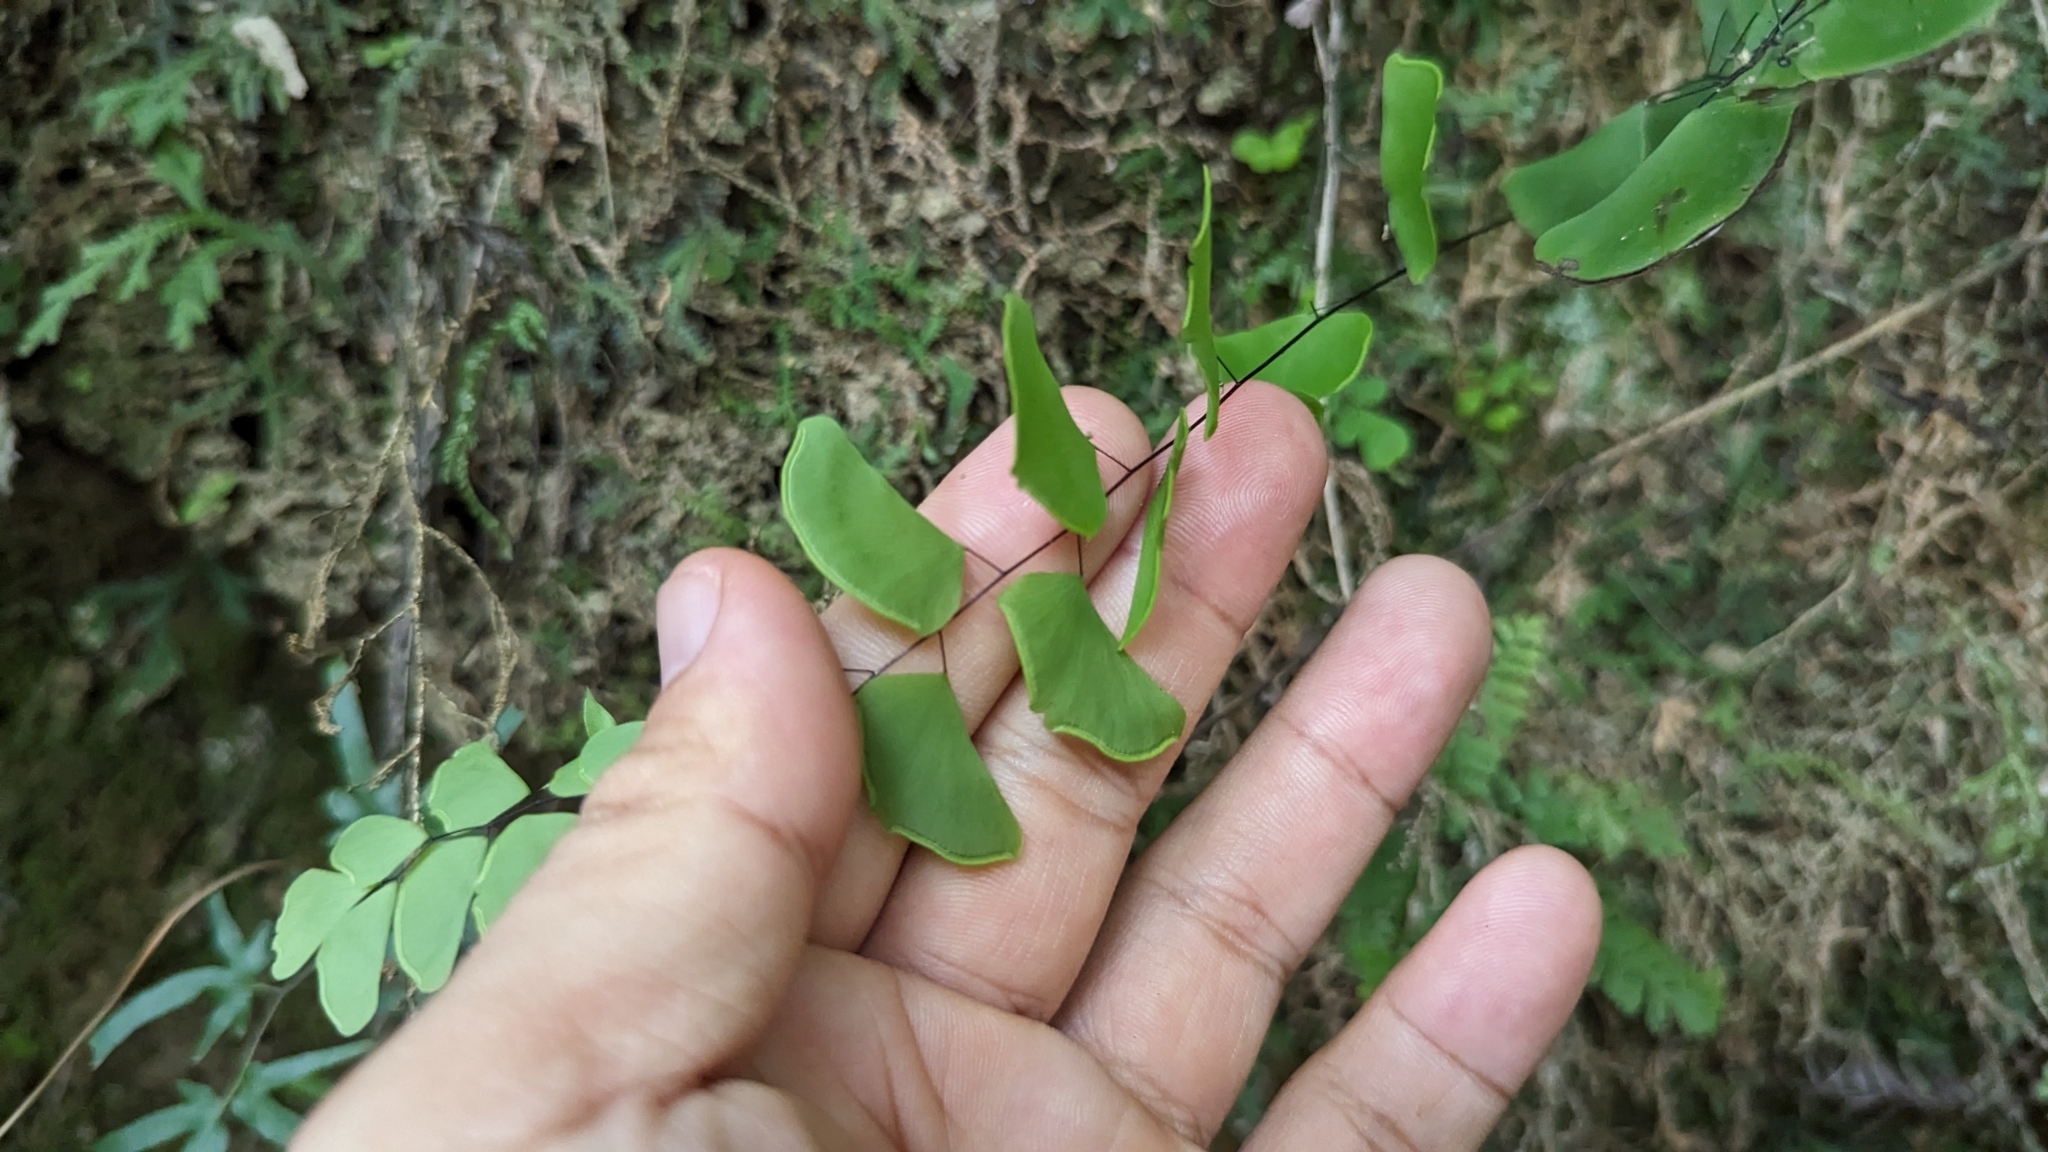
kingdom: Plantae
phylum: Tracheophyta
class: Polypodiopsida
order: Polypodiales
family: Pteridaceae
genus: Adiantum
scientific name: Adiantum philippense
